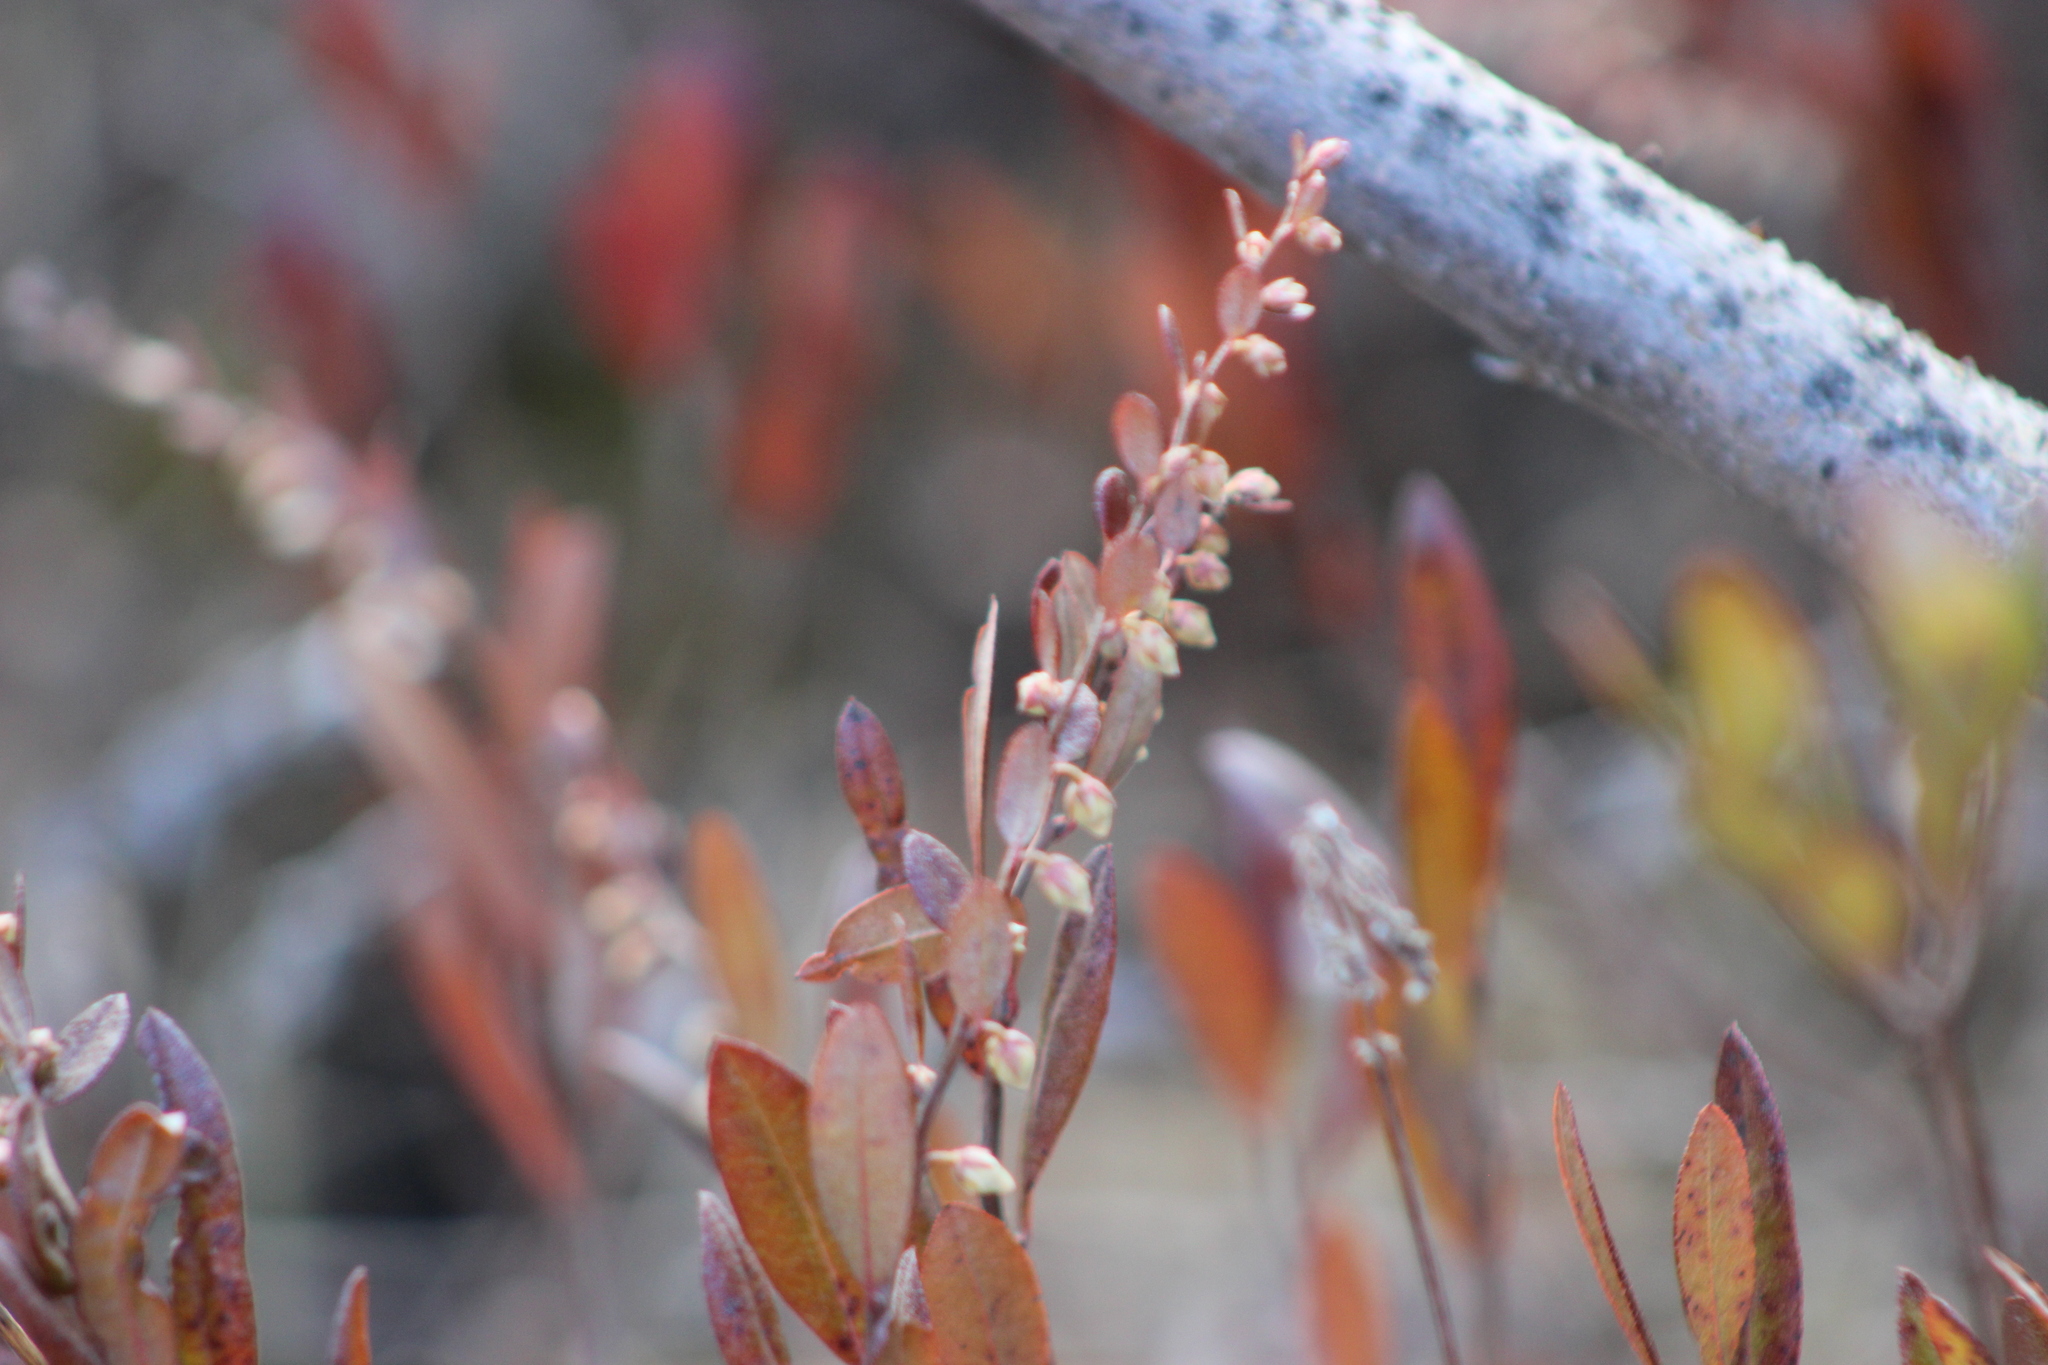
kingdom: Plantae
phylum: Tracheophyta
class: Magnoliopsida
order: Ericales
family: Ericaceae
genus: Chamaedaphne
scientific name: Chamaedaphne calyculata
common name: Leatherleaf
